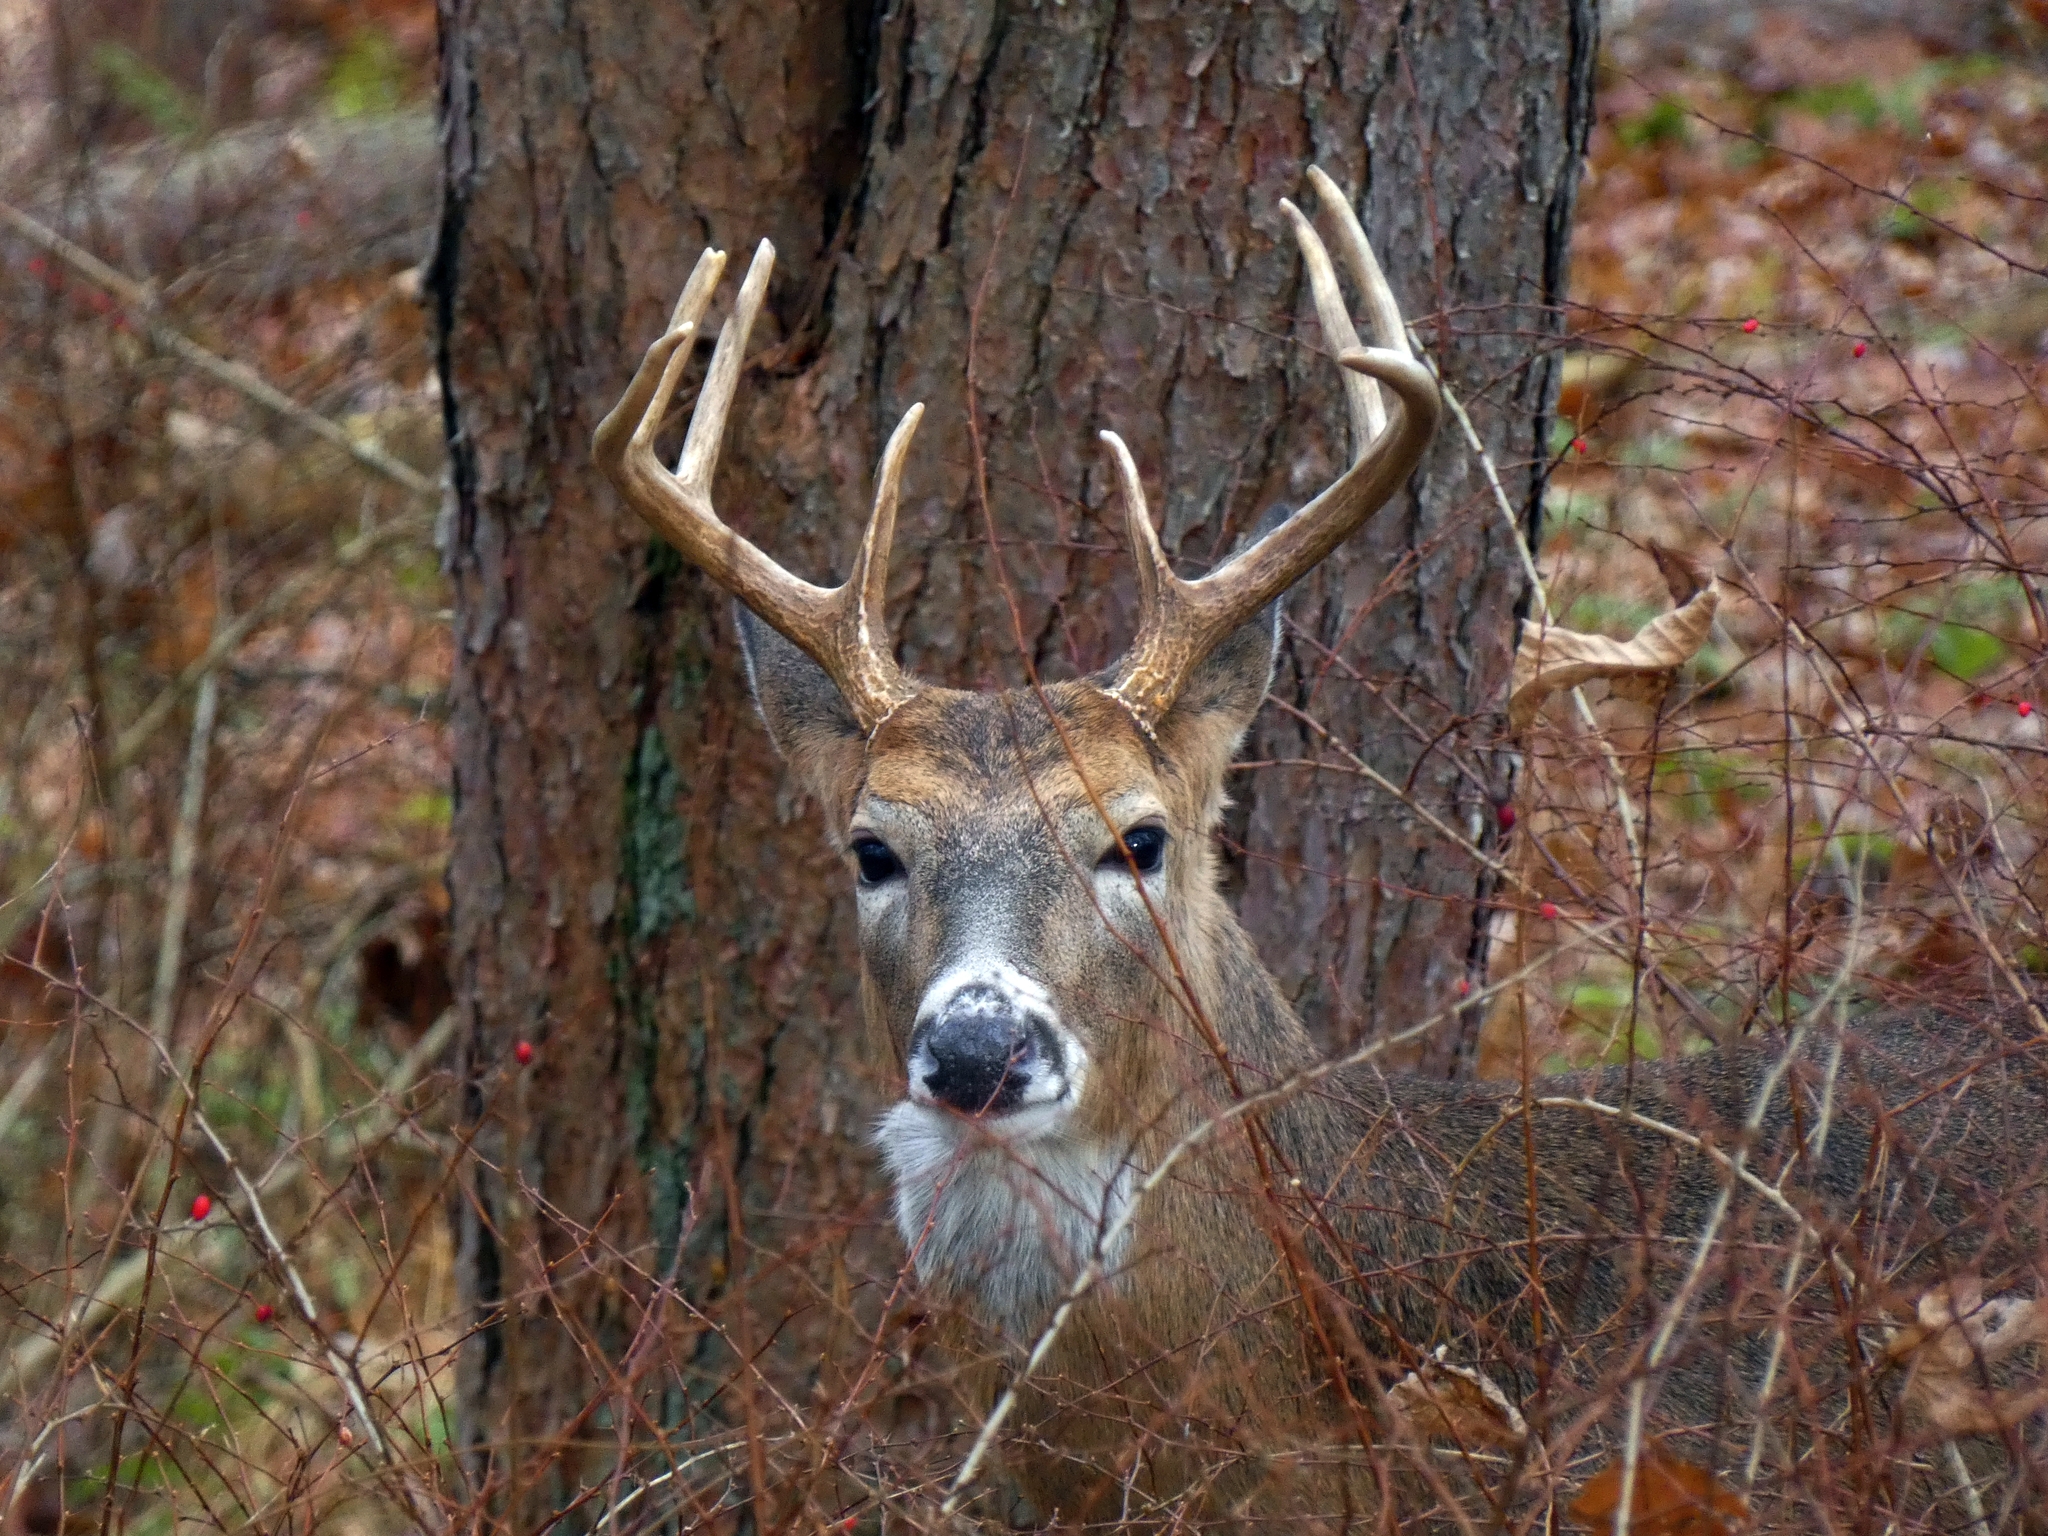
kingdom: Animalia
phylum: Chordata
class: Mammalia
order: Artiodactyla
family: Cervidae
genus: Odocoileus
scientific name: Odocoileus virginianus
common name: White-tailed deer
